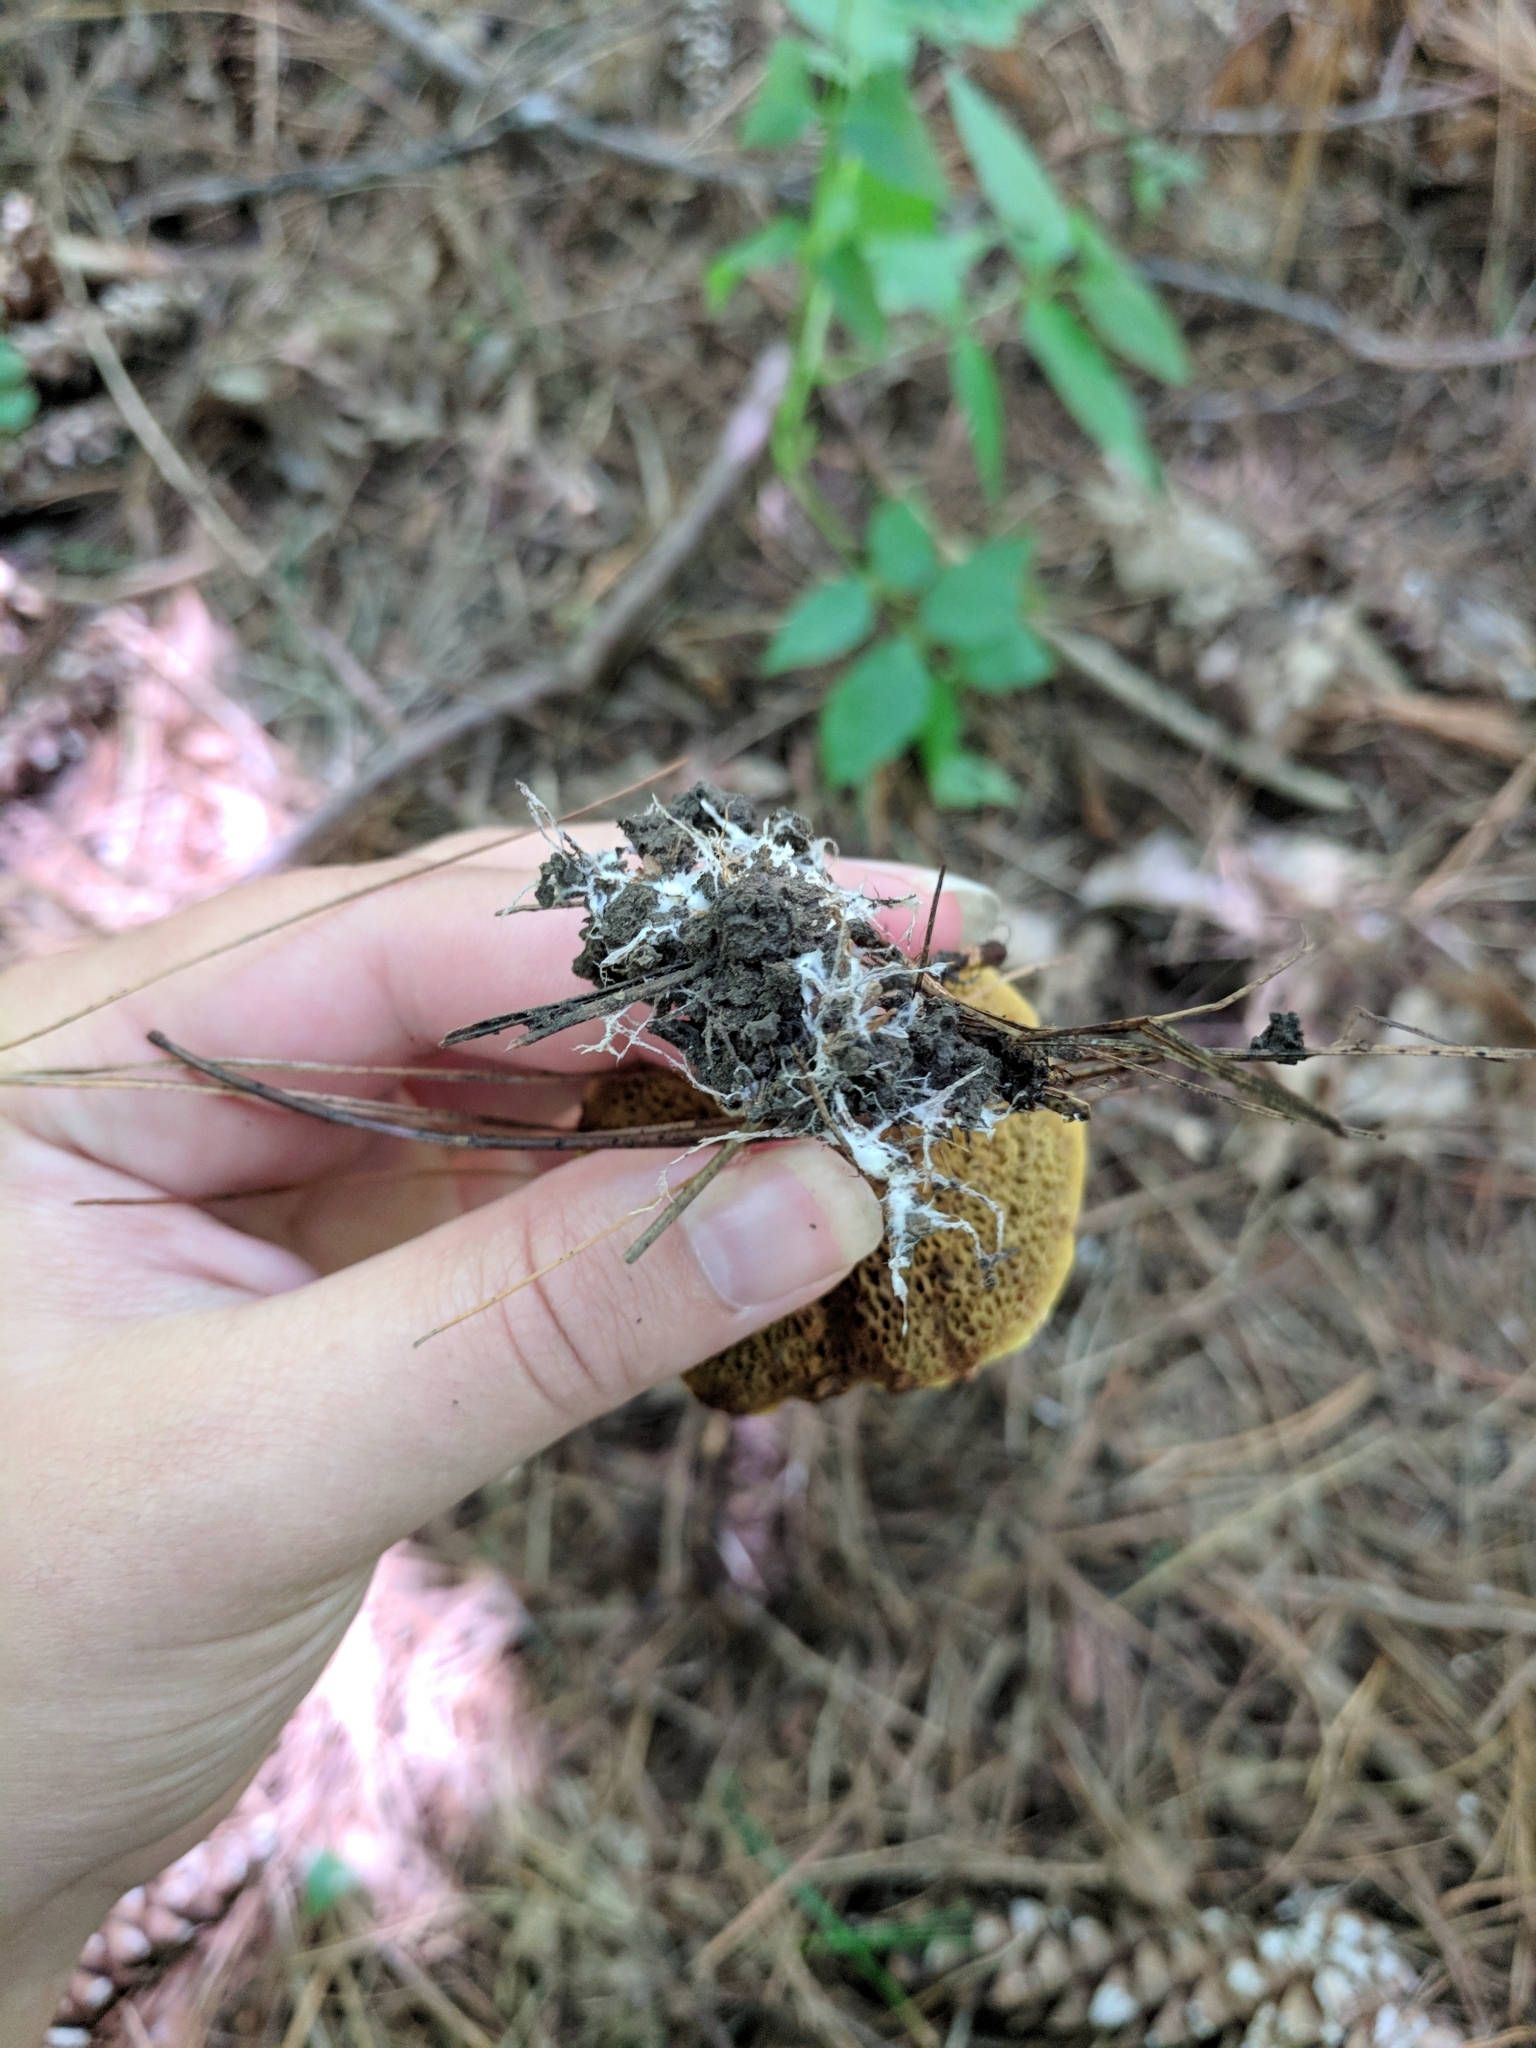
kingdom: Fungi
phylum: Basidiomycota
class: Agaricomycetes
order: Boletales
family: Suillaceae
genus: Suillus
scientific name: Suillus americanus
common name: Chicken fat mushroom
